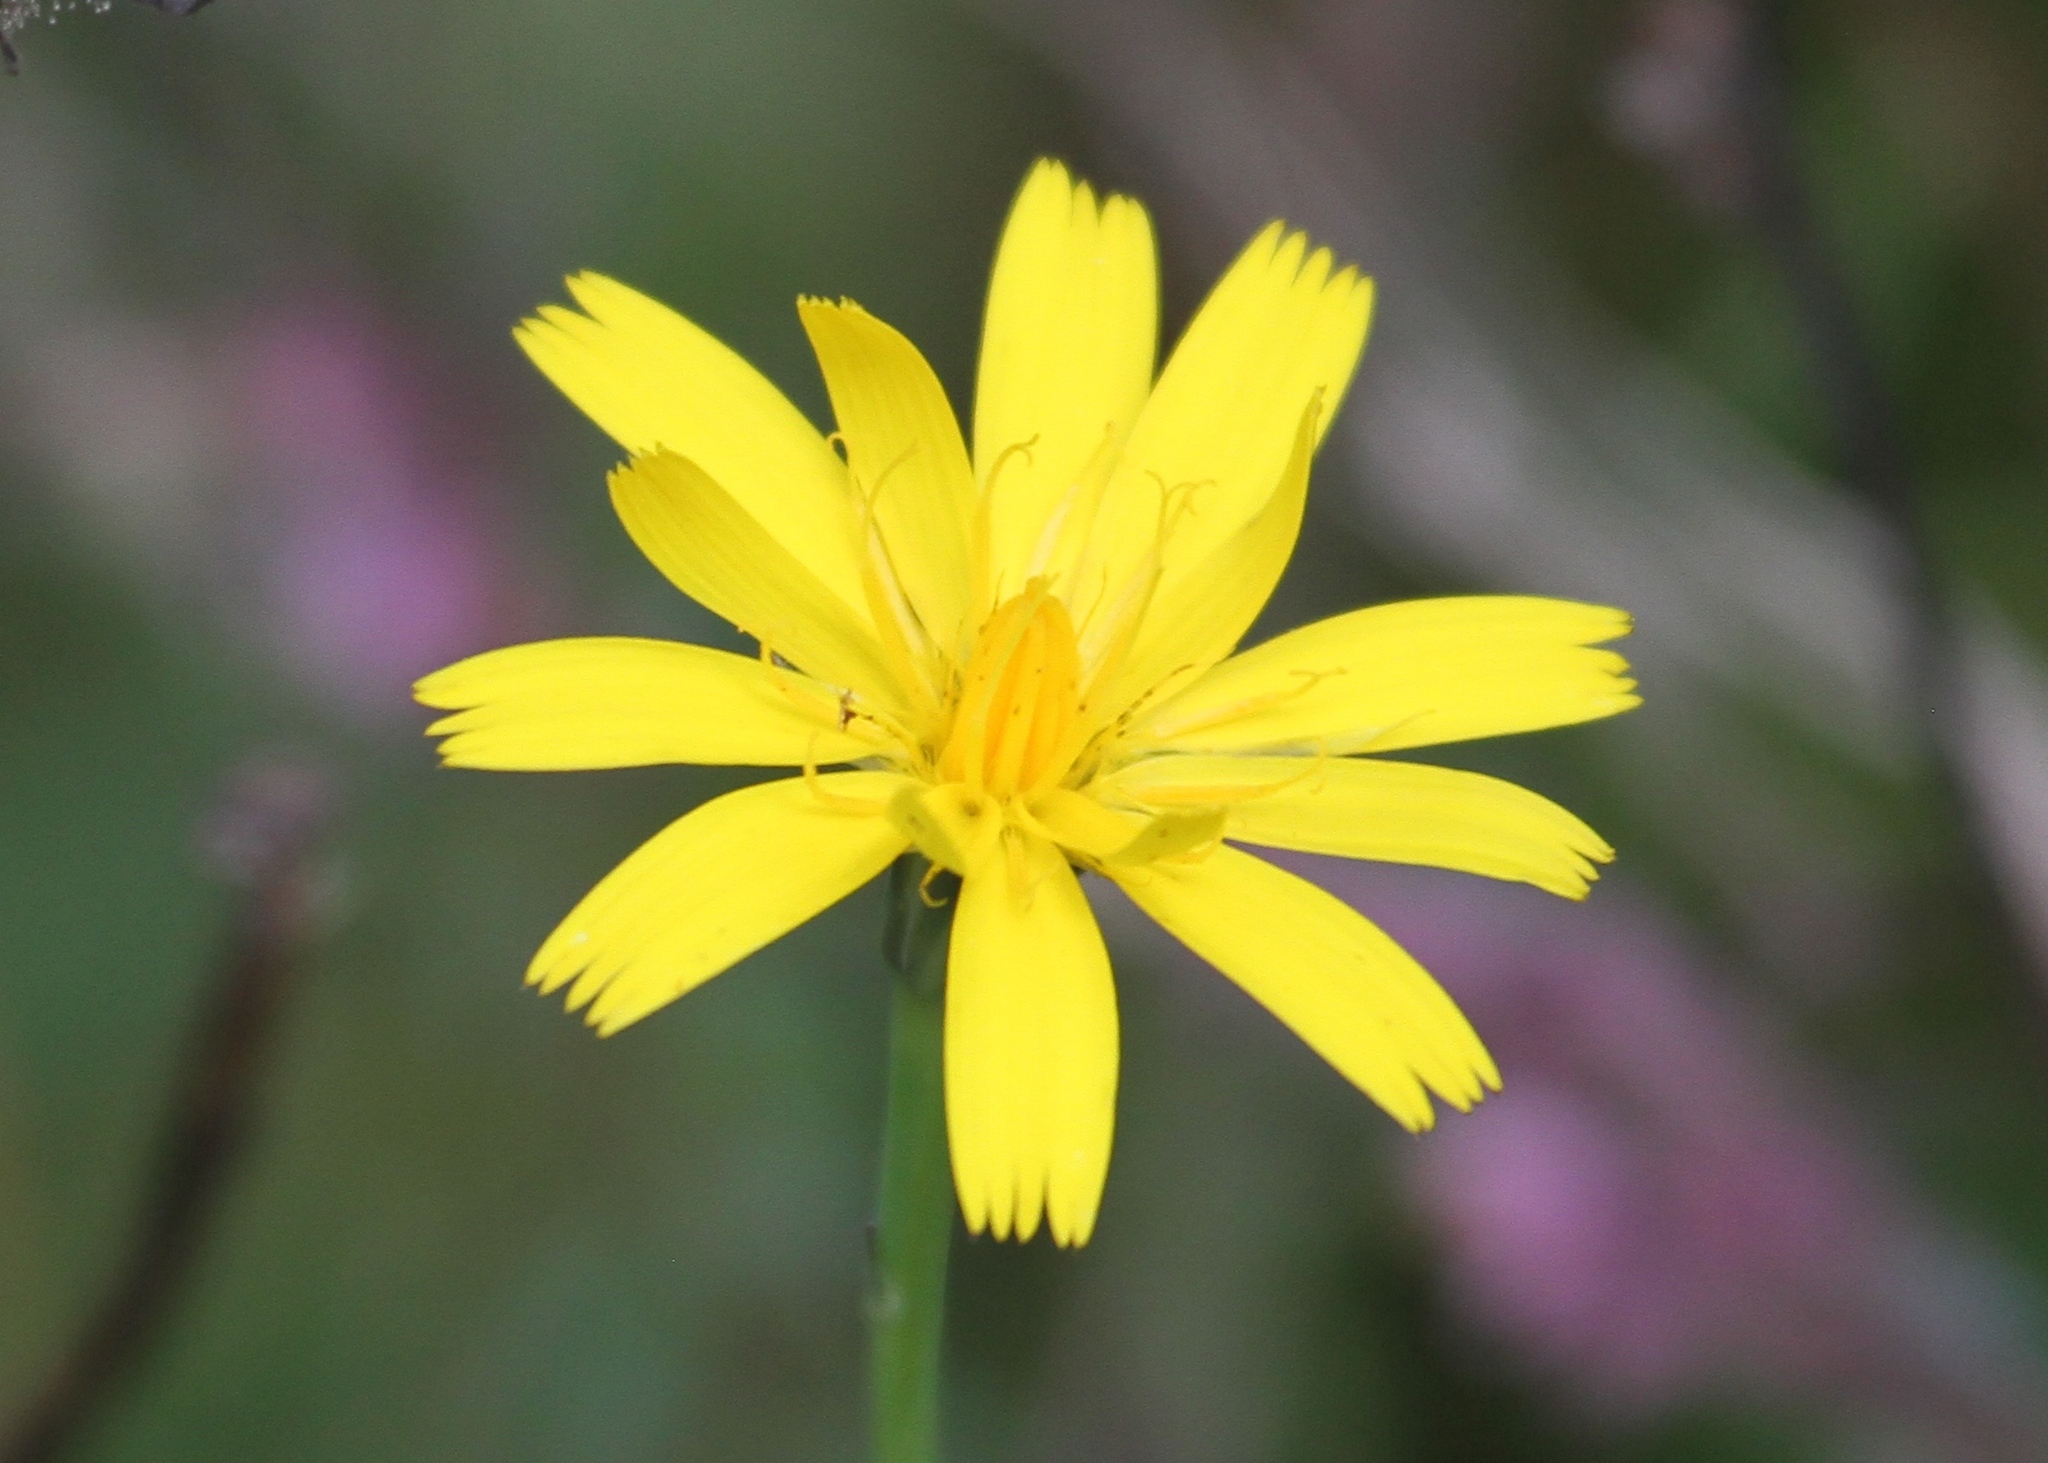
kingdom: Plantae
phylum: Tracheophyta
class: Magnoliopsida
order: Asterales
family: Asteraceae
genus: Hypochaeris
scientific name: Hypochaeris radicata
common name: Flatweed
